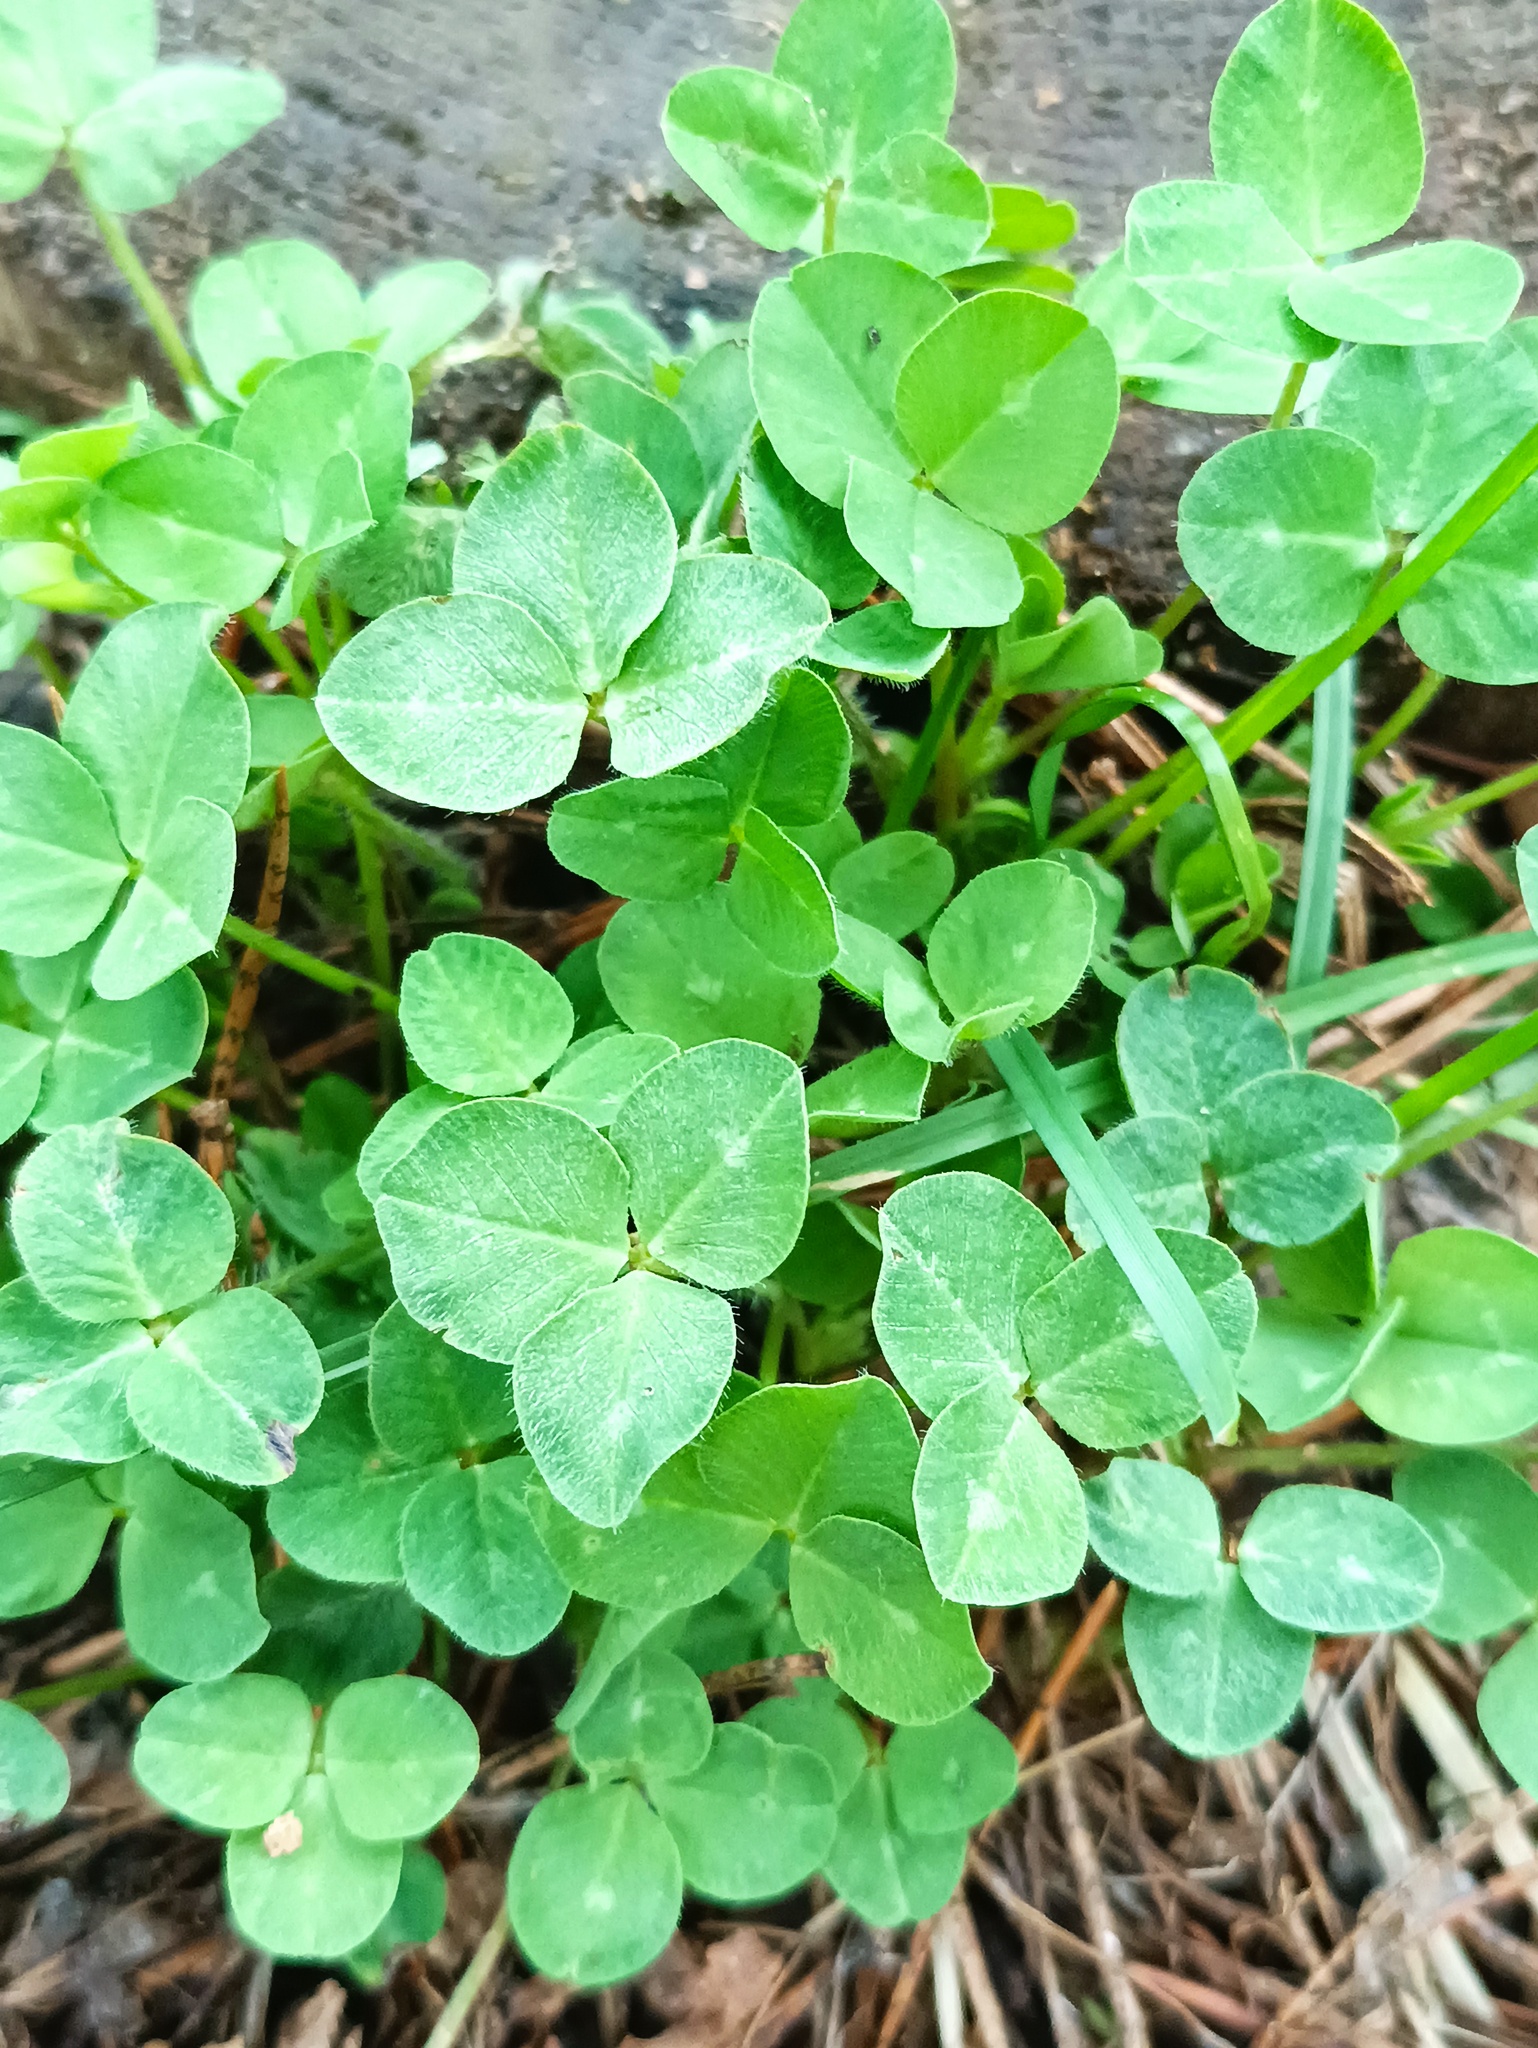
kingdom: Plantae
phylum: Tracheophyta
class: Magnoliopsida
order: Fabales
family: Fabaceae
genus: Trifolium
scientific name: Trifolium repens
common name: White clover
